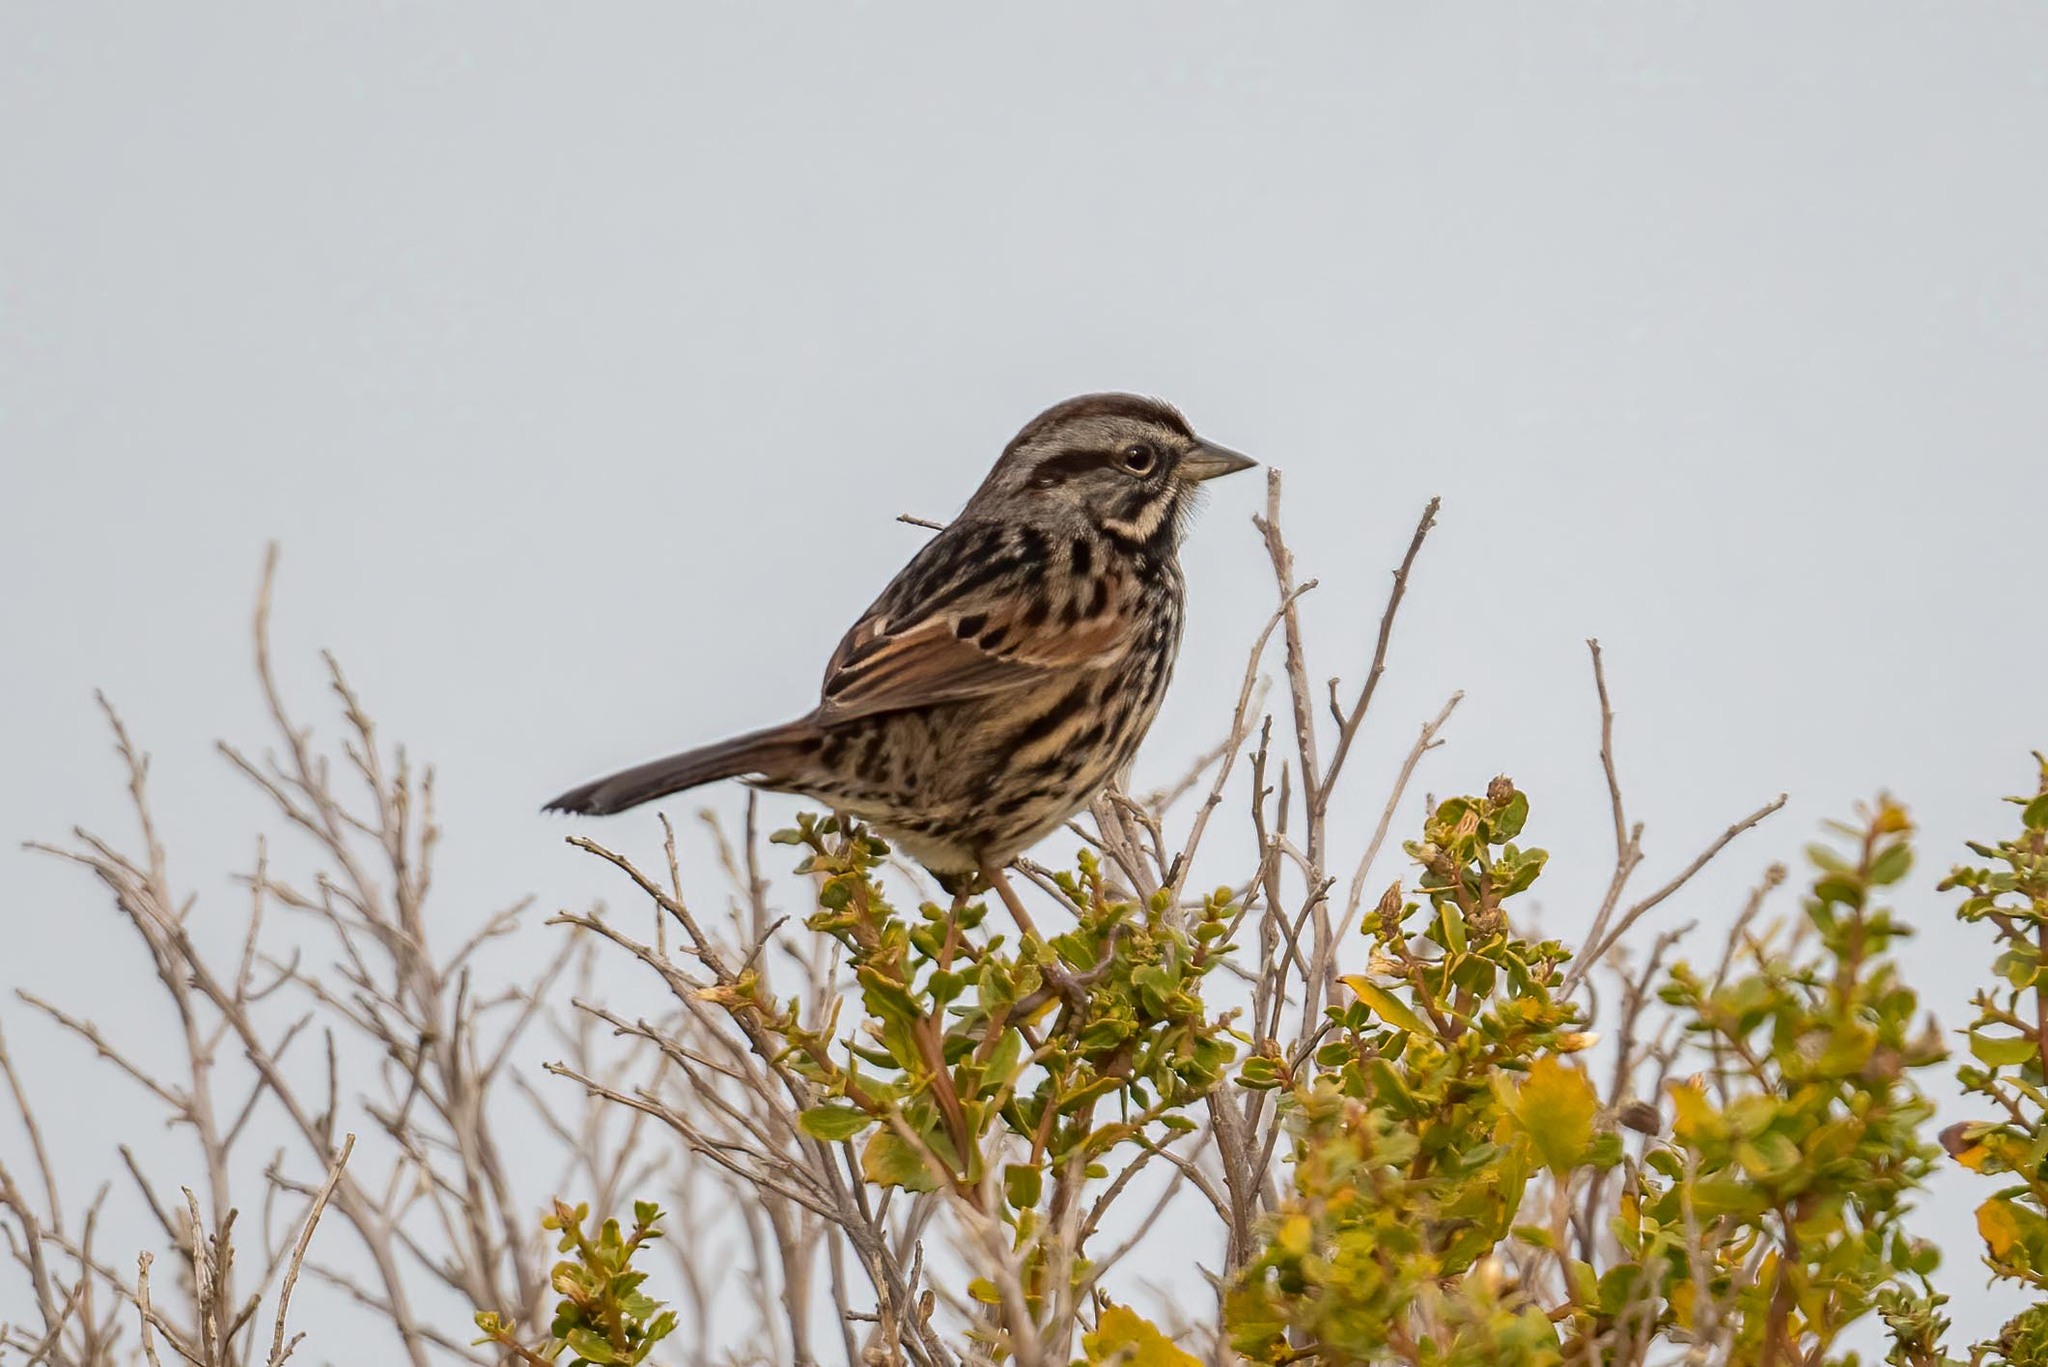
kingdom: Animalia
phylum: Chordata
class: Aves
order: Passeriformes
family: Passerellidae
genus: Melospiza
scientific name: Melospiza melodia
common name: Song sparrow
